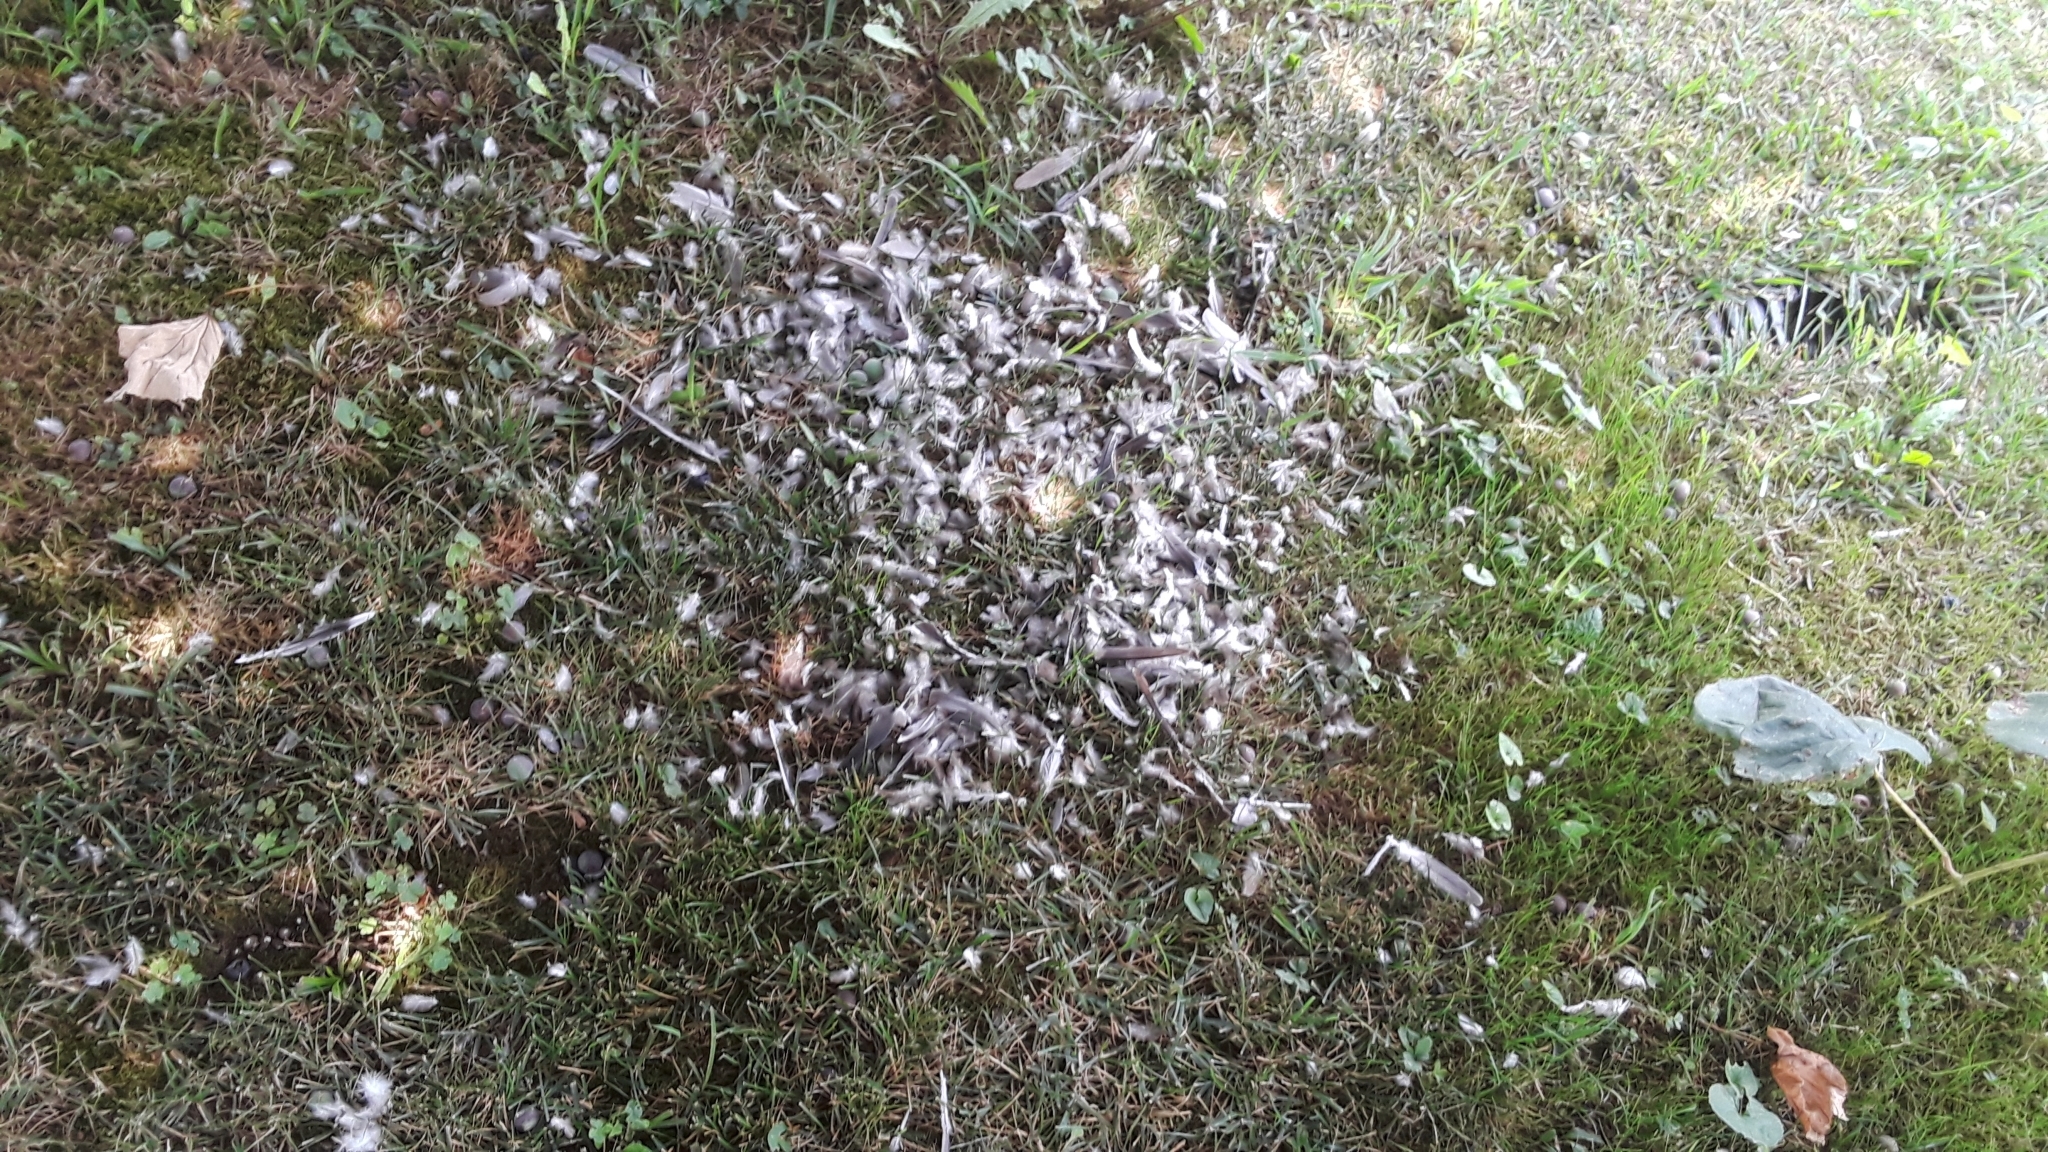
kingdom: Animalia
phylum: Chordata
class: Aves
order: Columbiformes
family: Columbidae
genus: Zenaida
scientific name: Zenaida macroura
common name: Mourning dove
